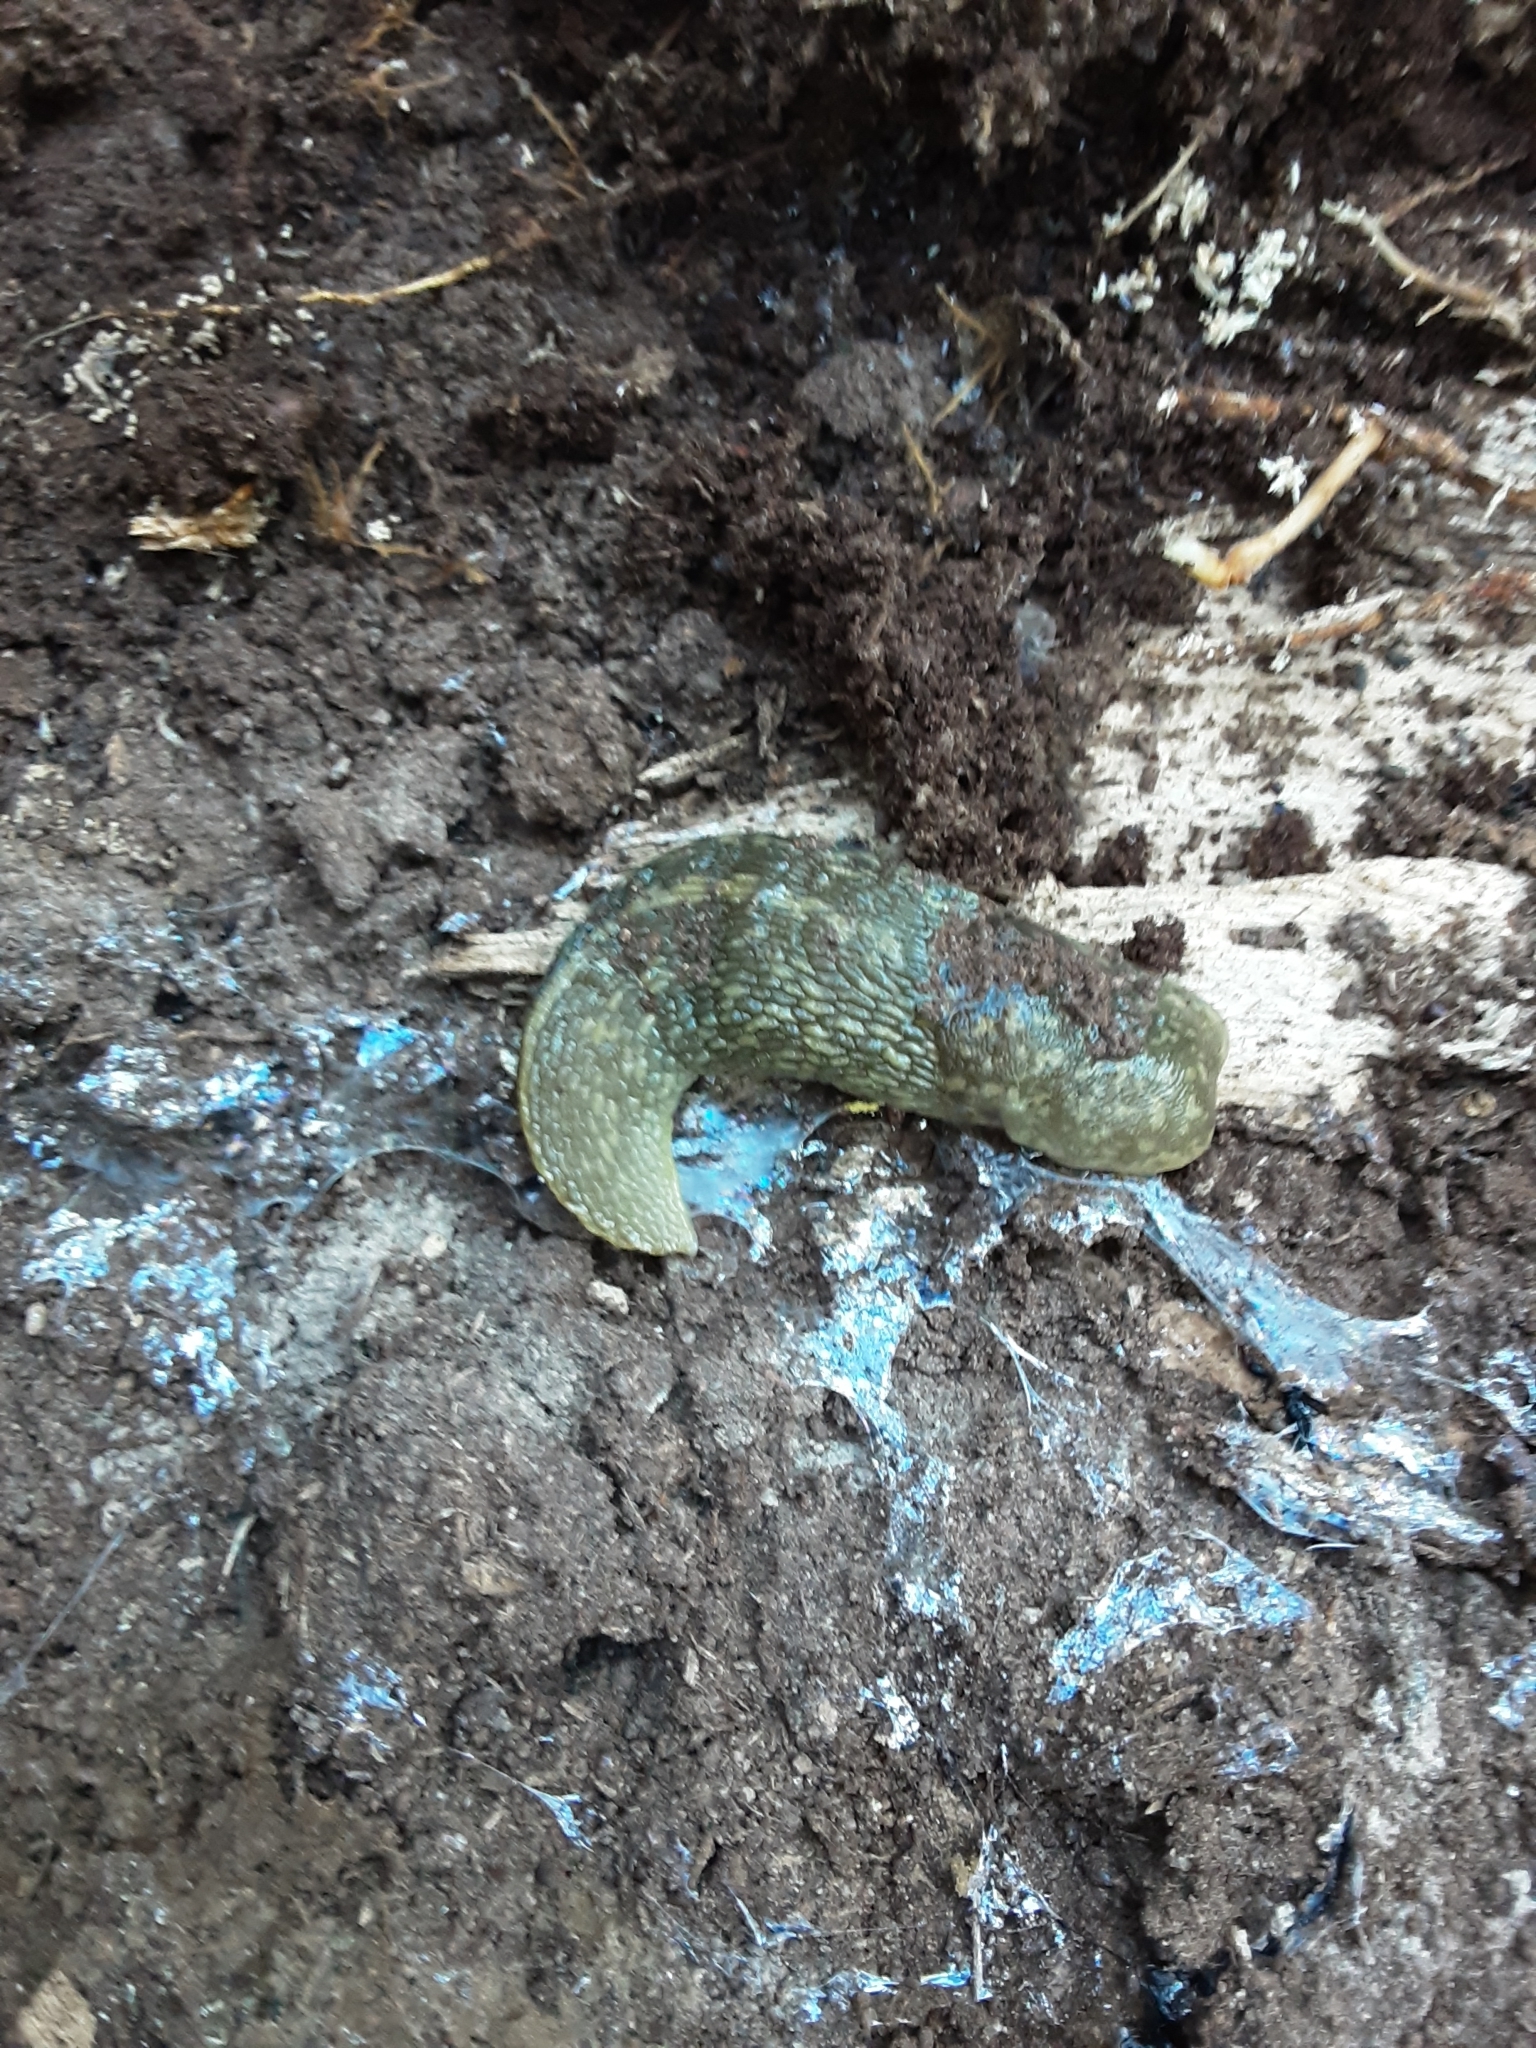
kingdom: Animalia
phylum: Mollusca
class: Gastropoda
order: Stylommatophora
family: Limacidae
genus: Limacus
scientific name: Limacus flavus
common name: Yellow gardenslug
